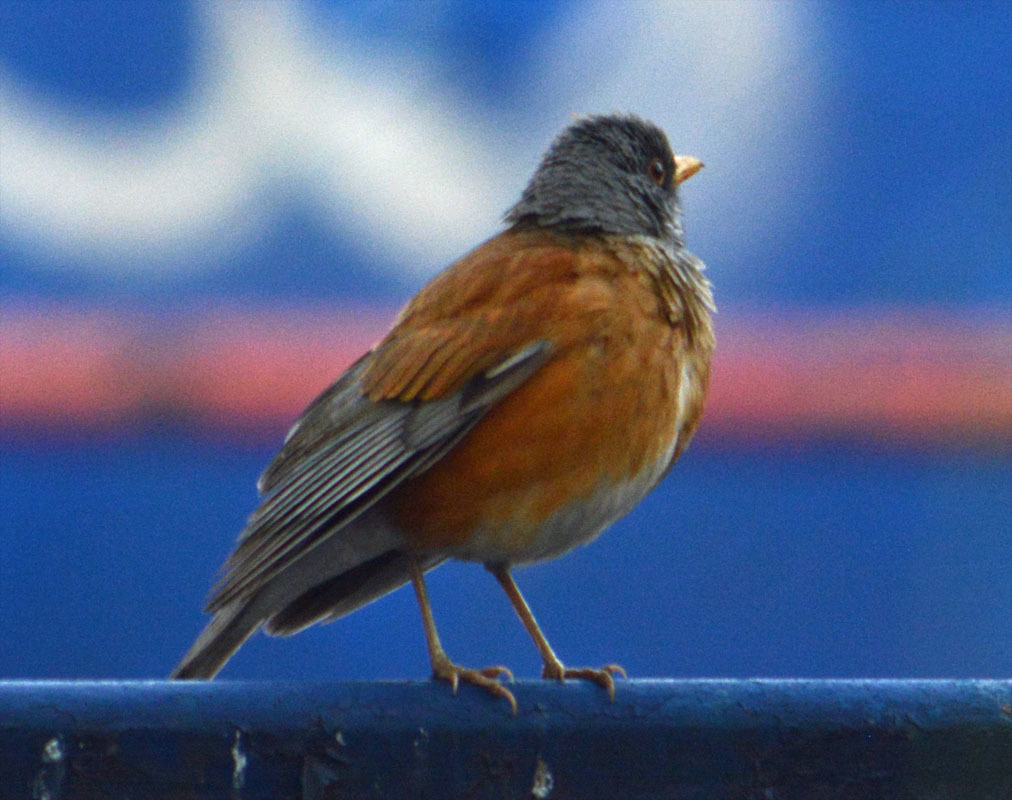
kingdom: Animalia
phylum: Chordata
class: Aves
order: Passeriformes
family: Turdidae
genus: Turdus
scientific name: Turdus rufopalliatus
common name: Rufous-backed robin
